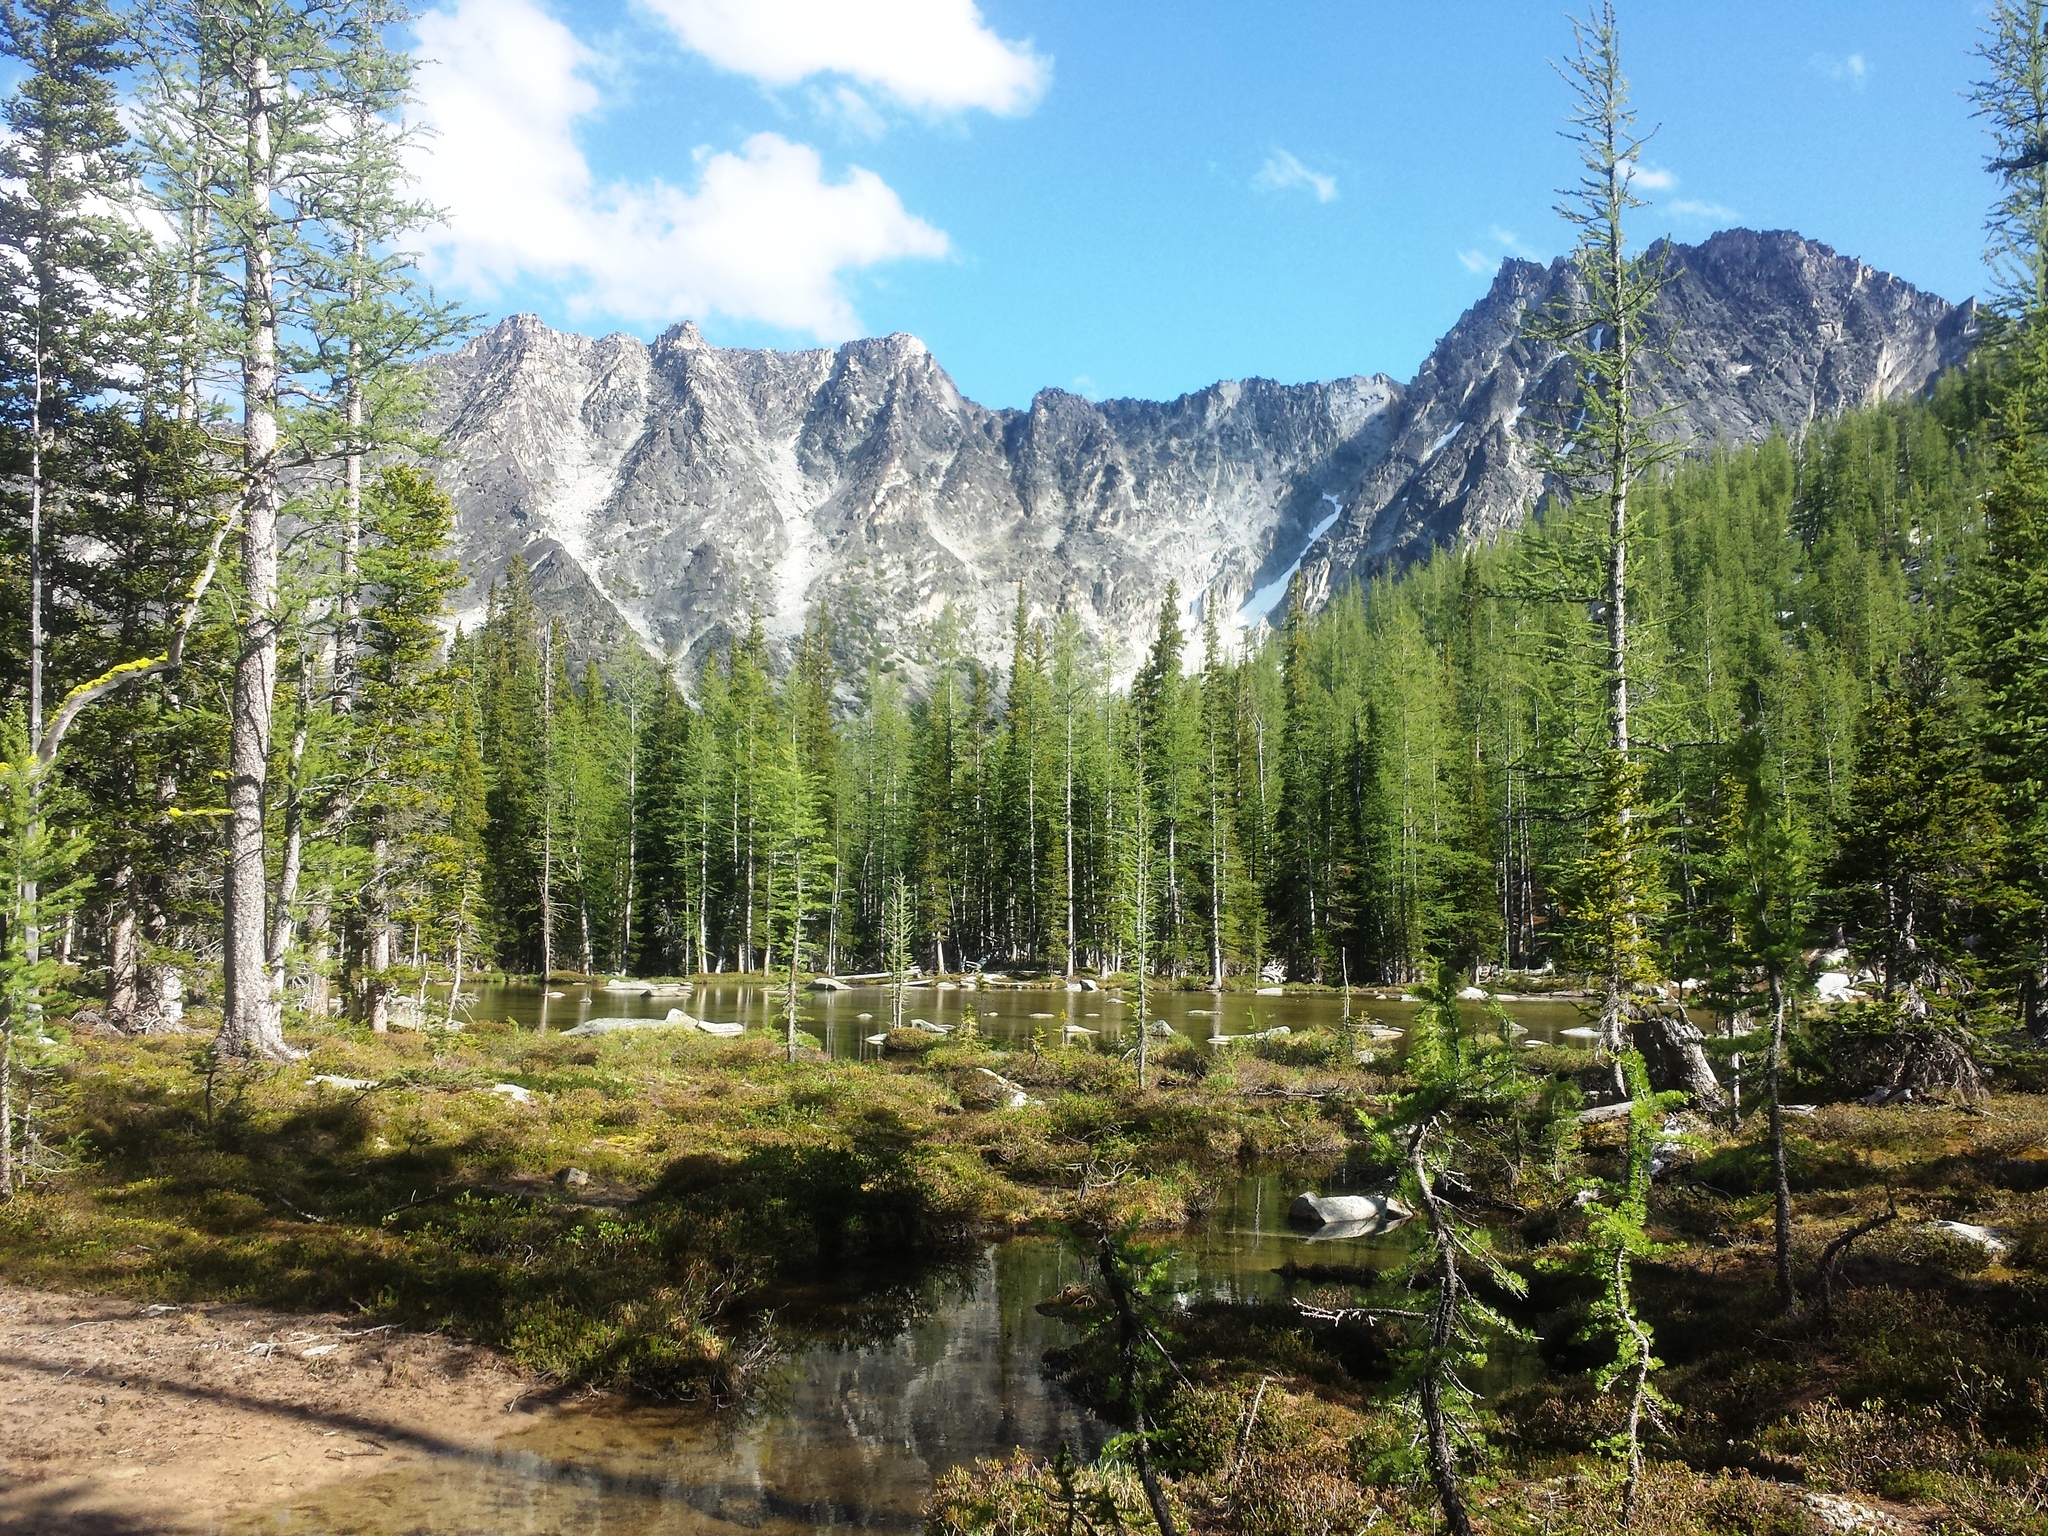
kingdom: Plantae
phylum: Tracheophyta
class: Pinopsida
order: Pinales
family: Pinaceae
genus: Larix
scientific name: Larix lyallii
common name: Alpine larch
